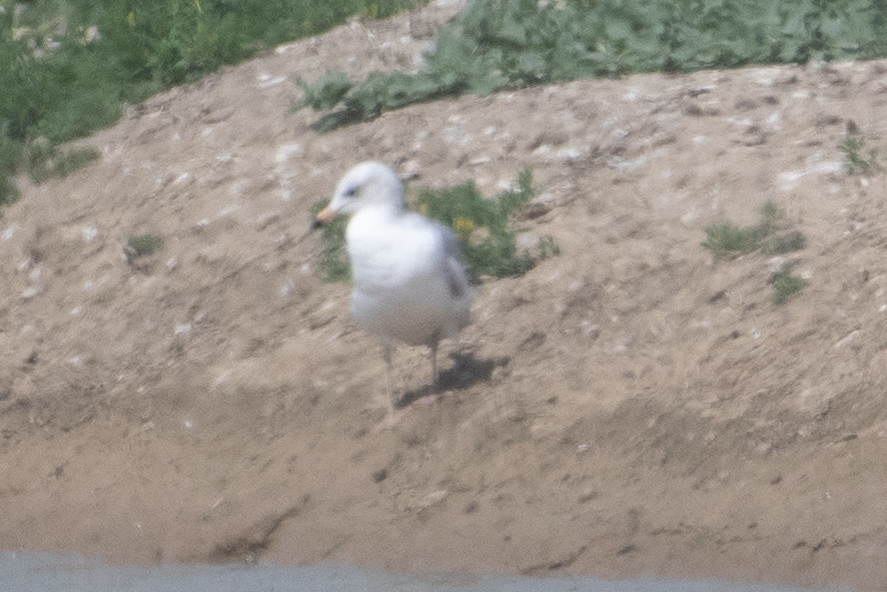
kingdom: Animalia
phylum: Chordata
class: Aves
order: Charadriiformes
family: Laridae
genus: Larus
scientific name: Larus delawarensis
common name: Ring-billed gull
